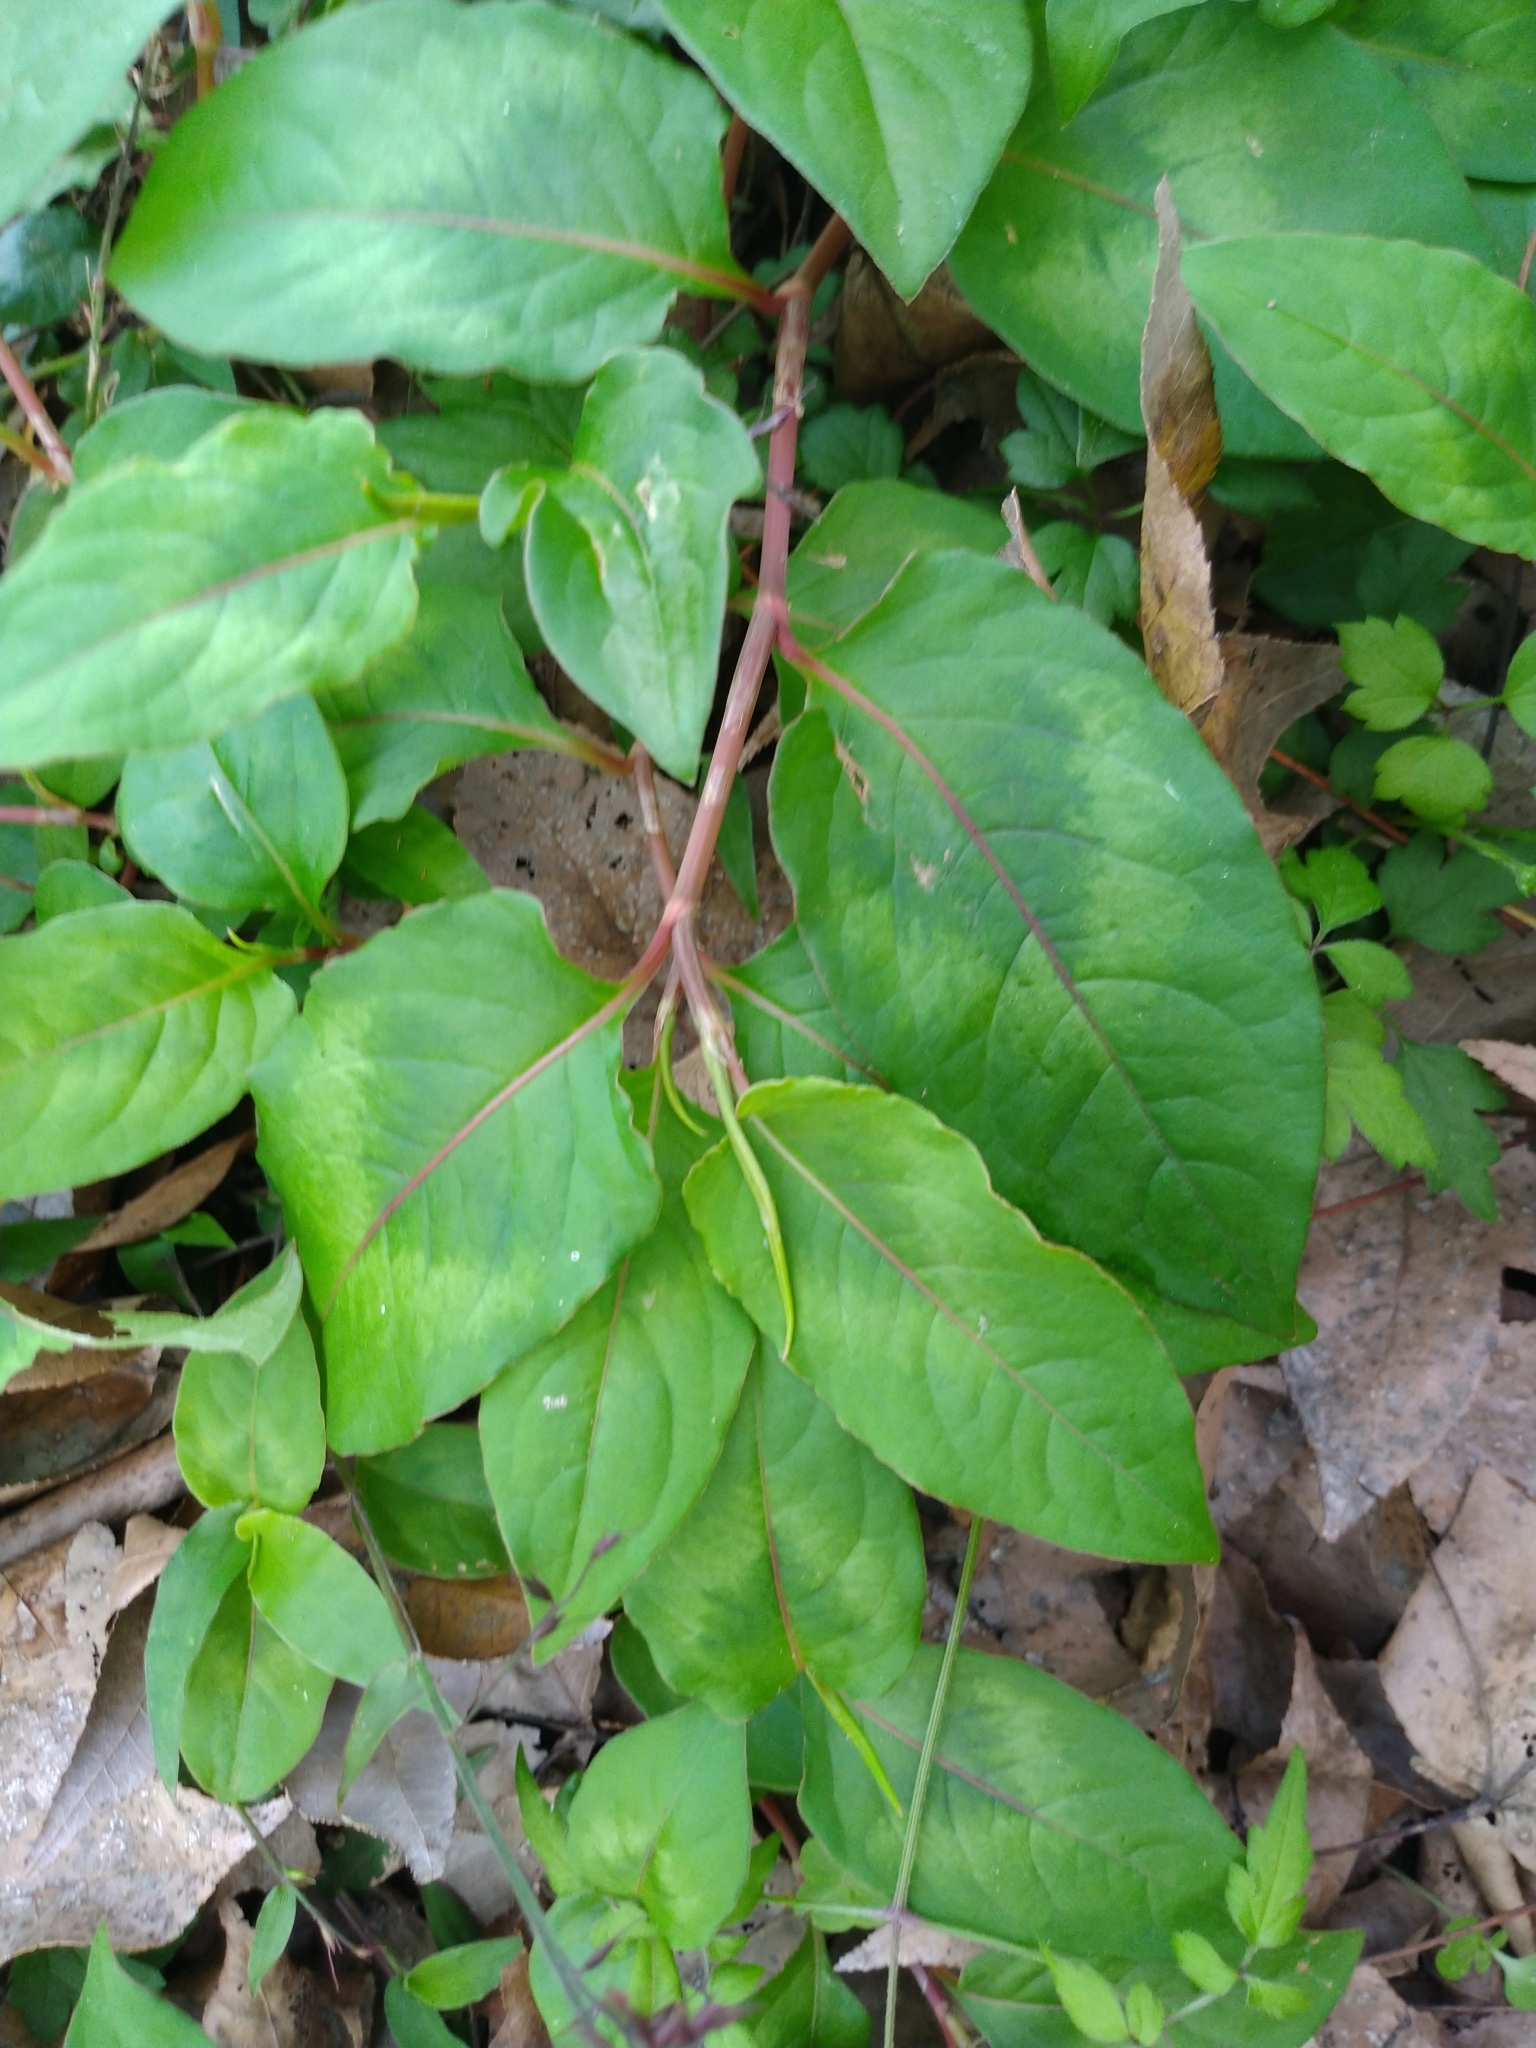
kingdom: Plantae
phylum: Tracheophyta
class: Magnoliopsida
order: Caryophyllales
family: Polygonaceae
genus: Persicaria
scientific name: Persicaria chinensis
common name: Chinese knotweed
